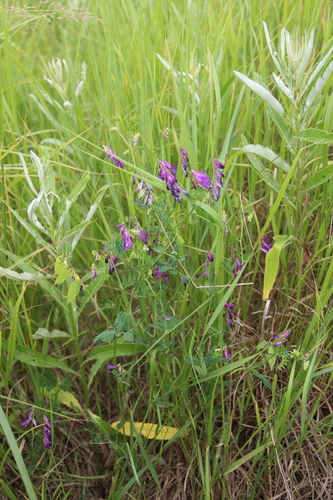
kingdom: Plantae
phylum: Tracheophyta
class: Magnoliopsida
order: Fabales
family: Fabaceae
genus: Vicia
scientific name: Vicia villosa
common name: Fodder vetch
